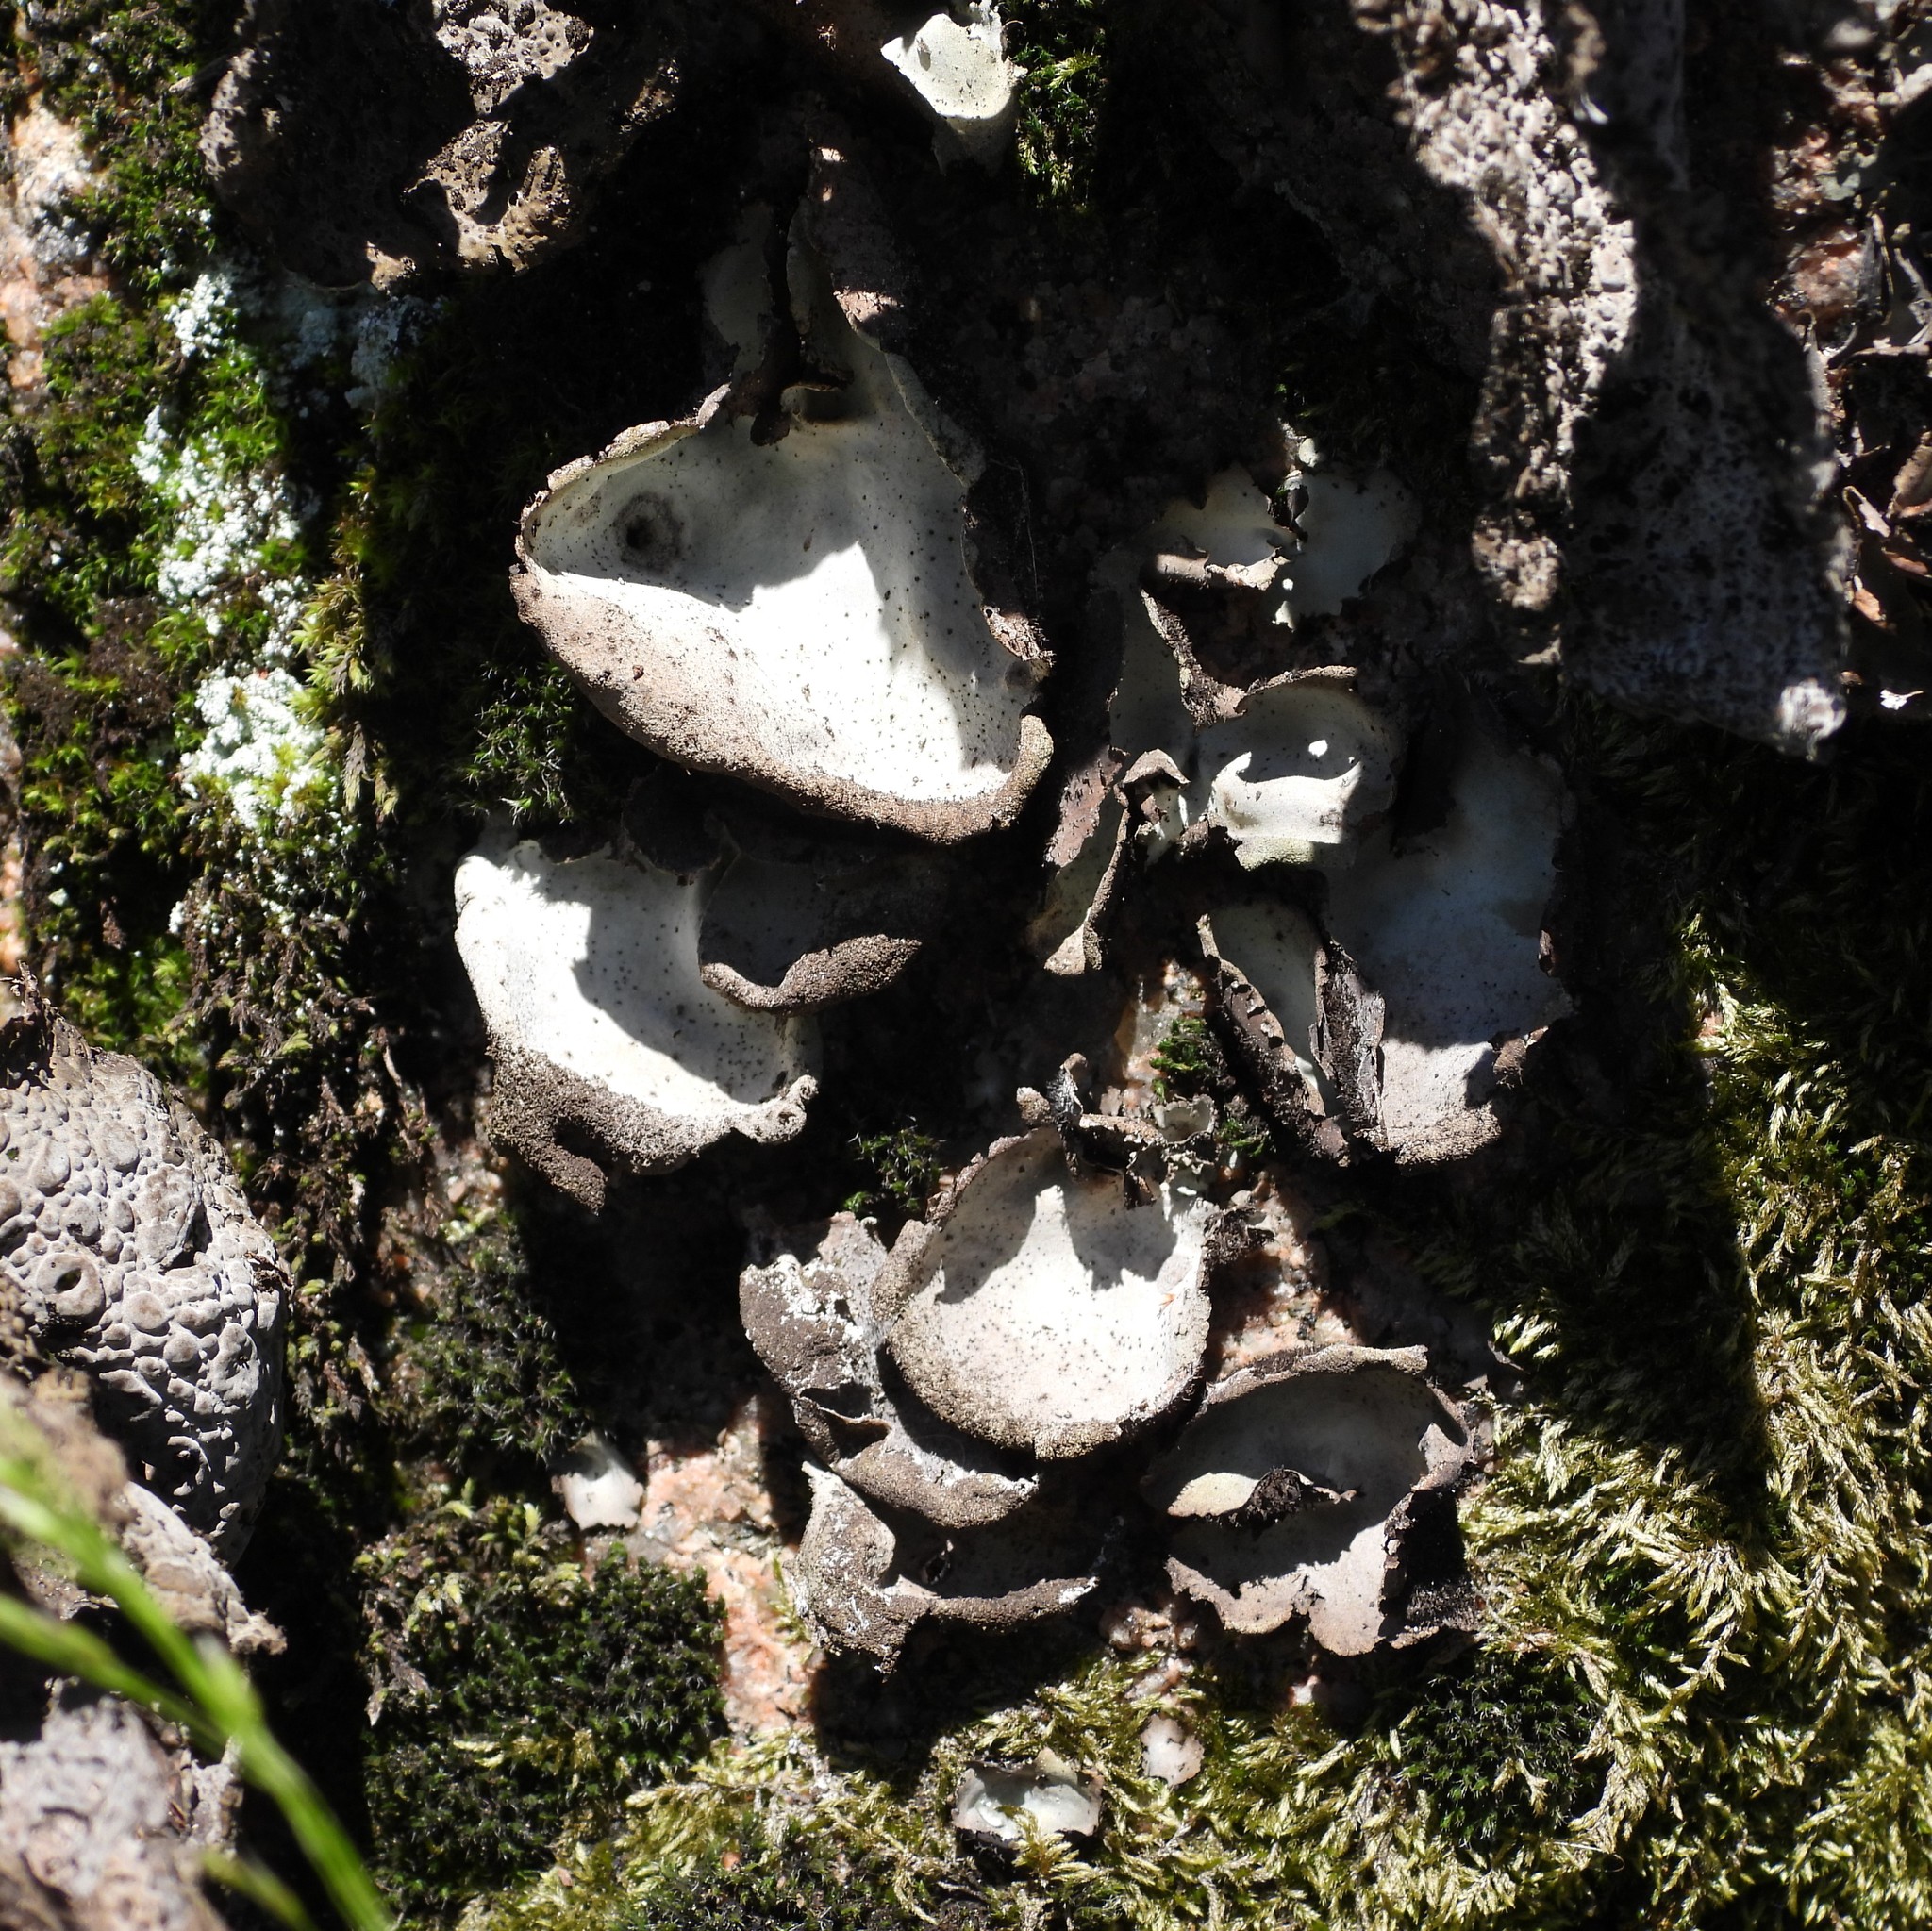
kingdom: Fungi
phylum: Ascomycota
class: Lecanoromycetes
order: Umbilicariales
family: Umbilicariaceae
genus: Umbilicaria
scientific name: Umbilicaria hirsuta
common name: Granulating rocktripe lichen
